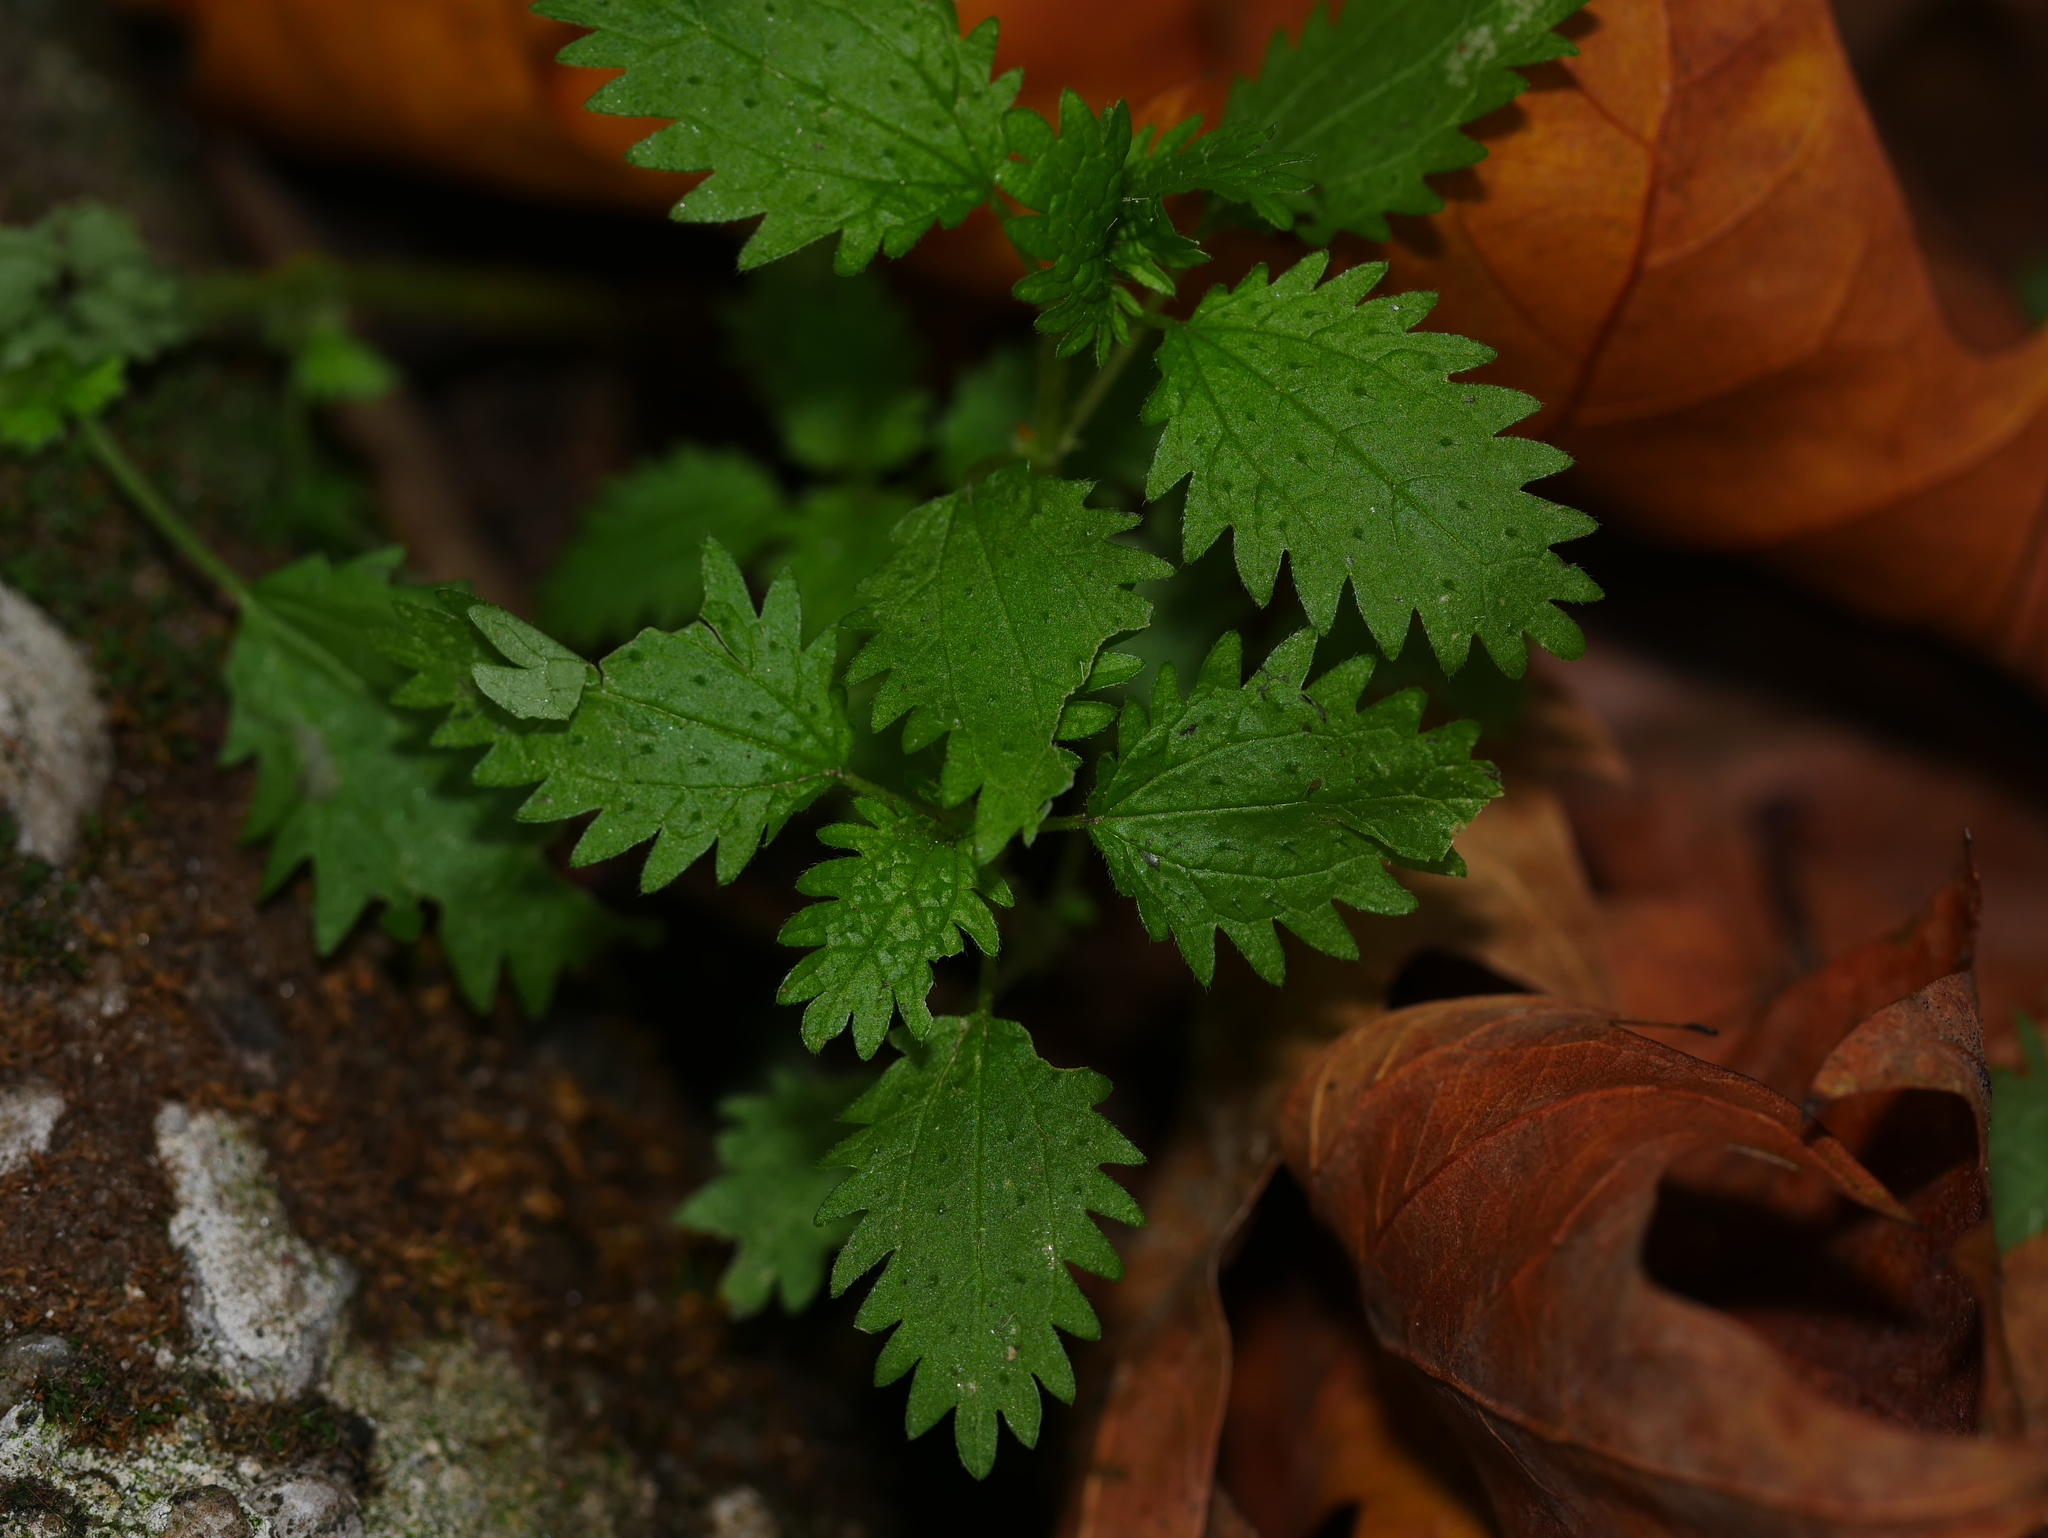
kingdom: Plantae
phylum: Tracheophyta
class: Magnoliopsida
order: Rosales
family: Urticaceae
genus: Urtica
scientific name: Urtica urens
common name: Dwarf nettle
